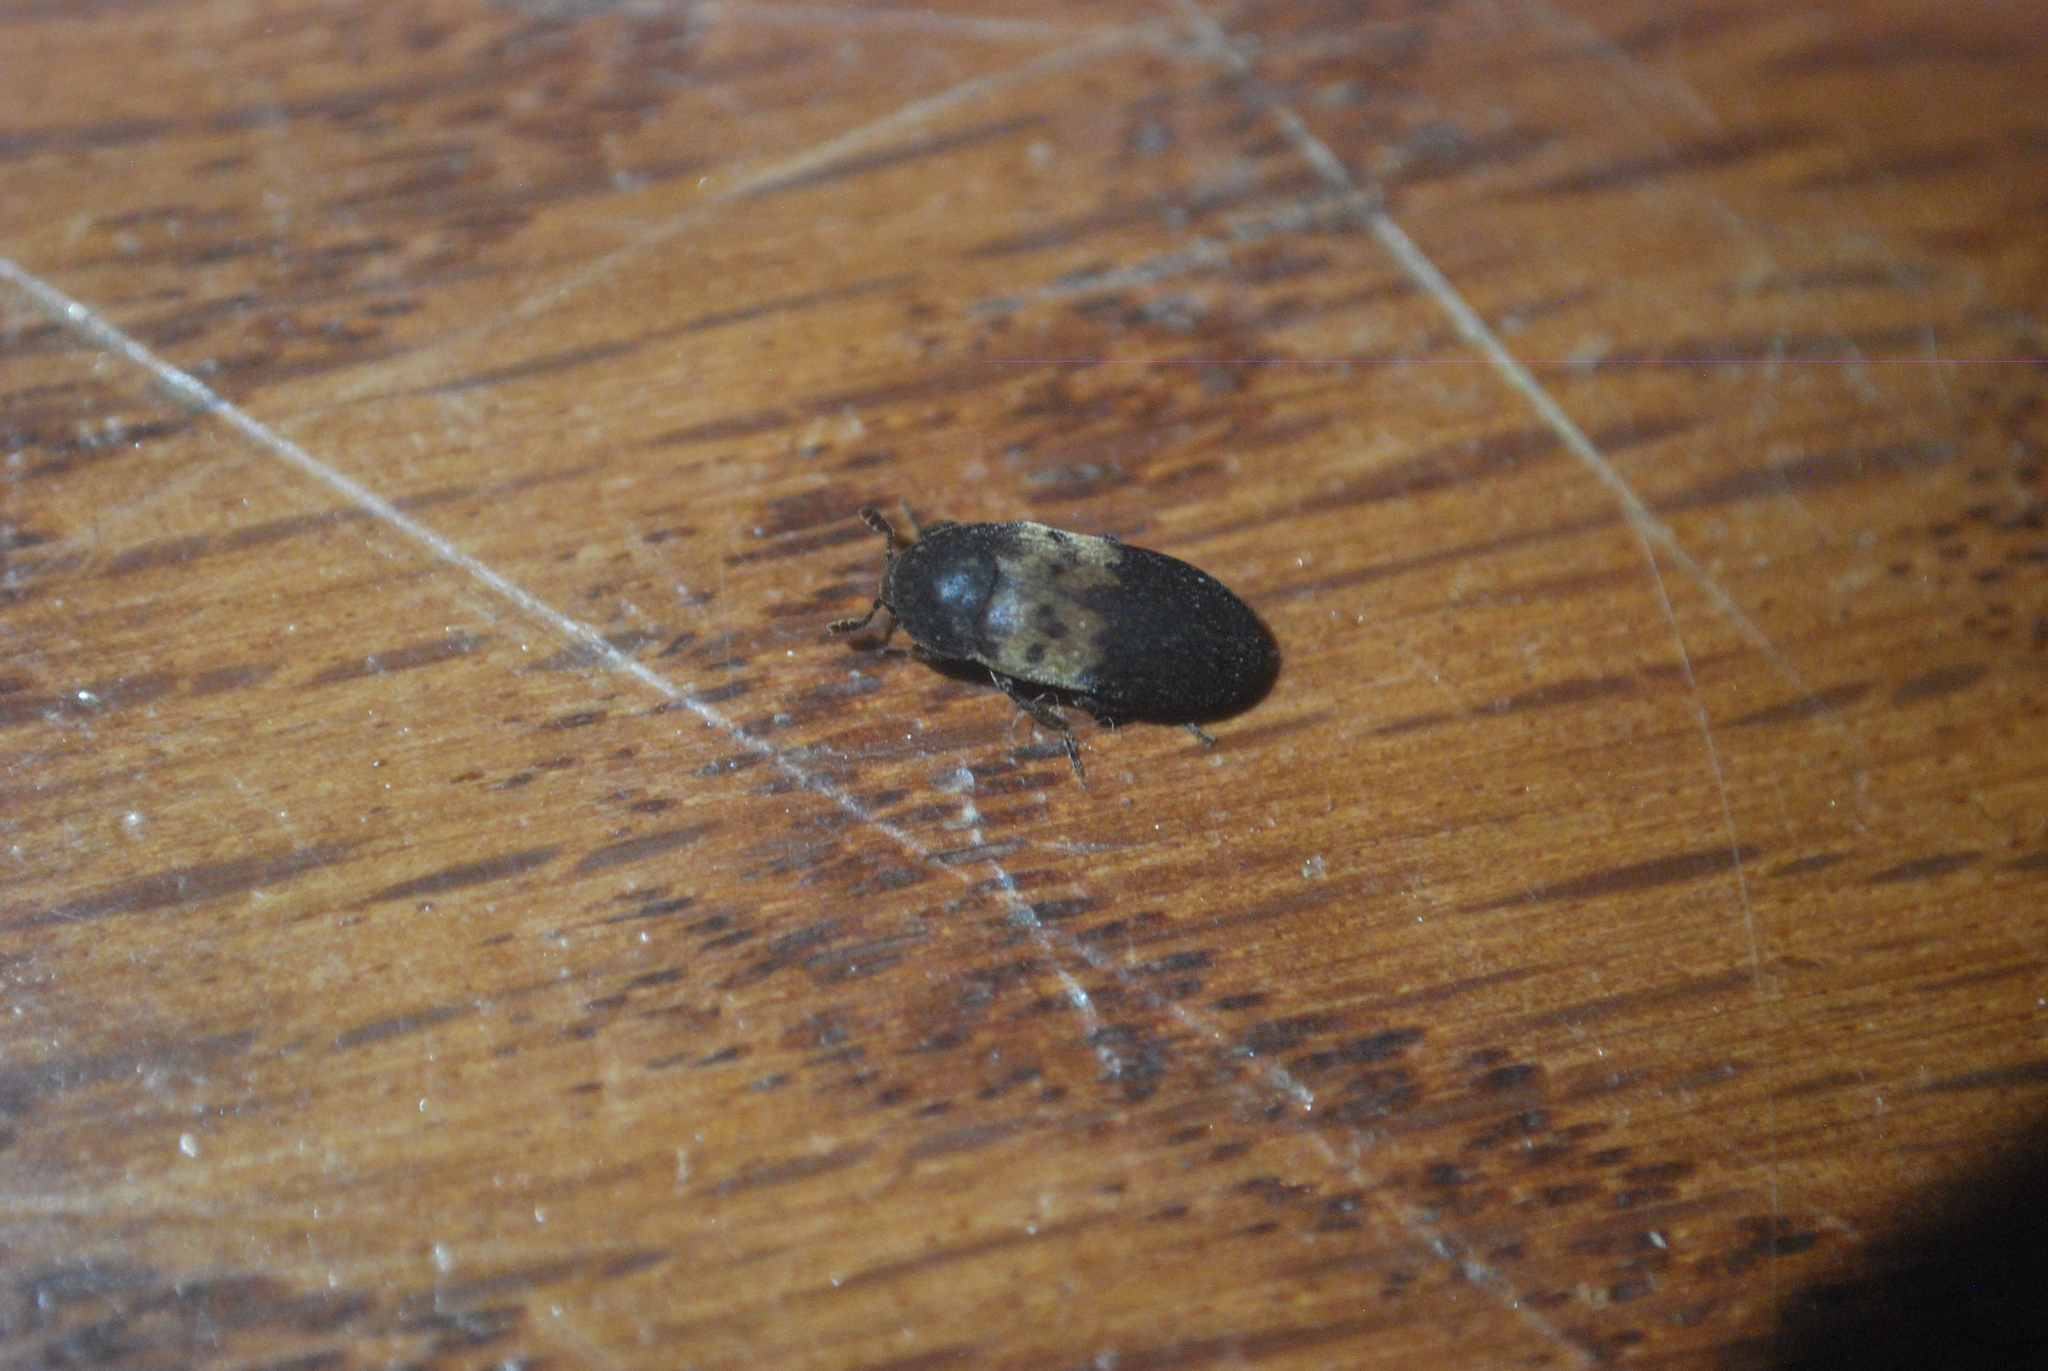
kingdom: Animalia
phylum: Arthropoda
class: Insecta
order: Coleoptera
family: Dermestidae
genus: Dermestes
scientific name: Dermestes lardarius
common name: Larder beetle
